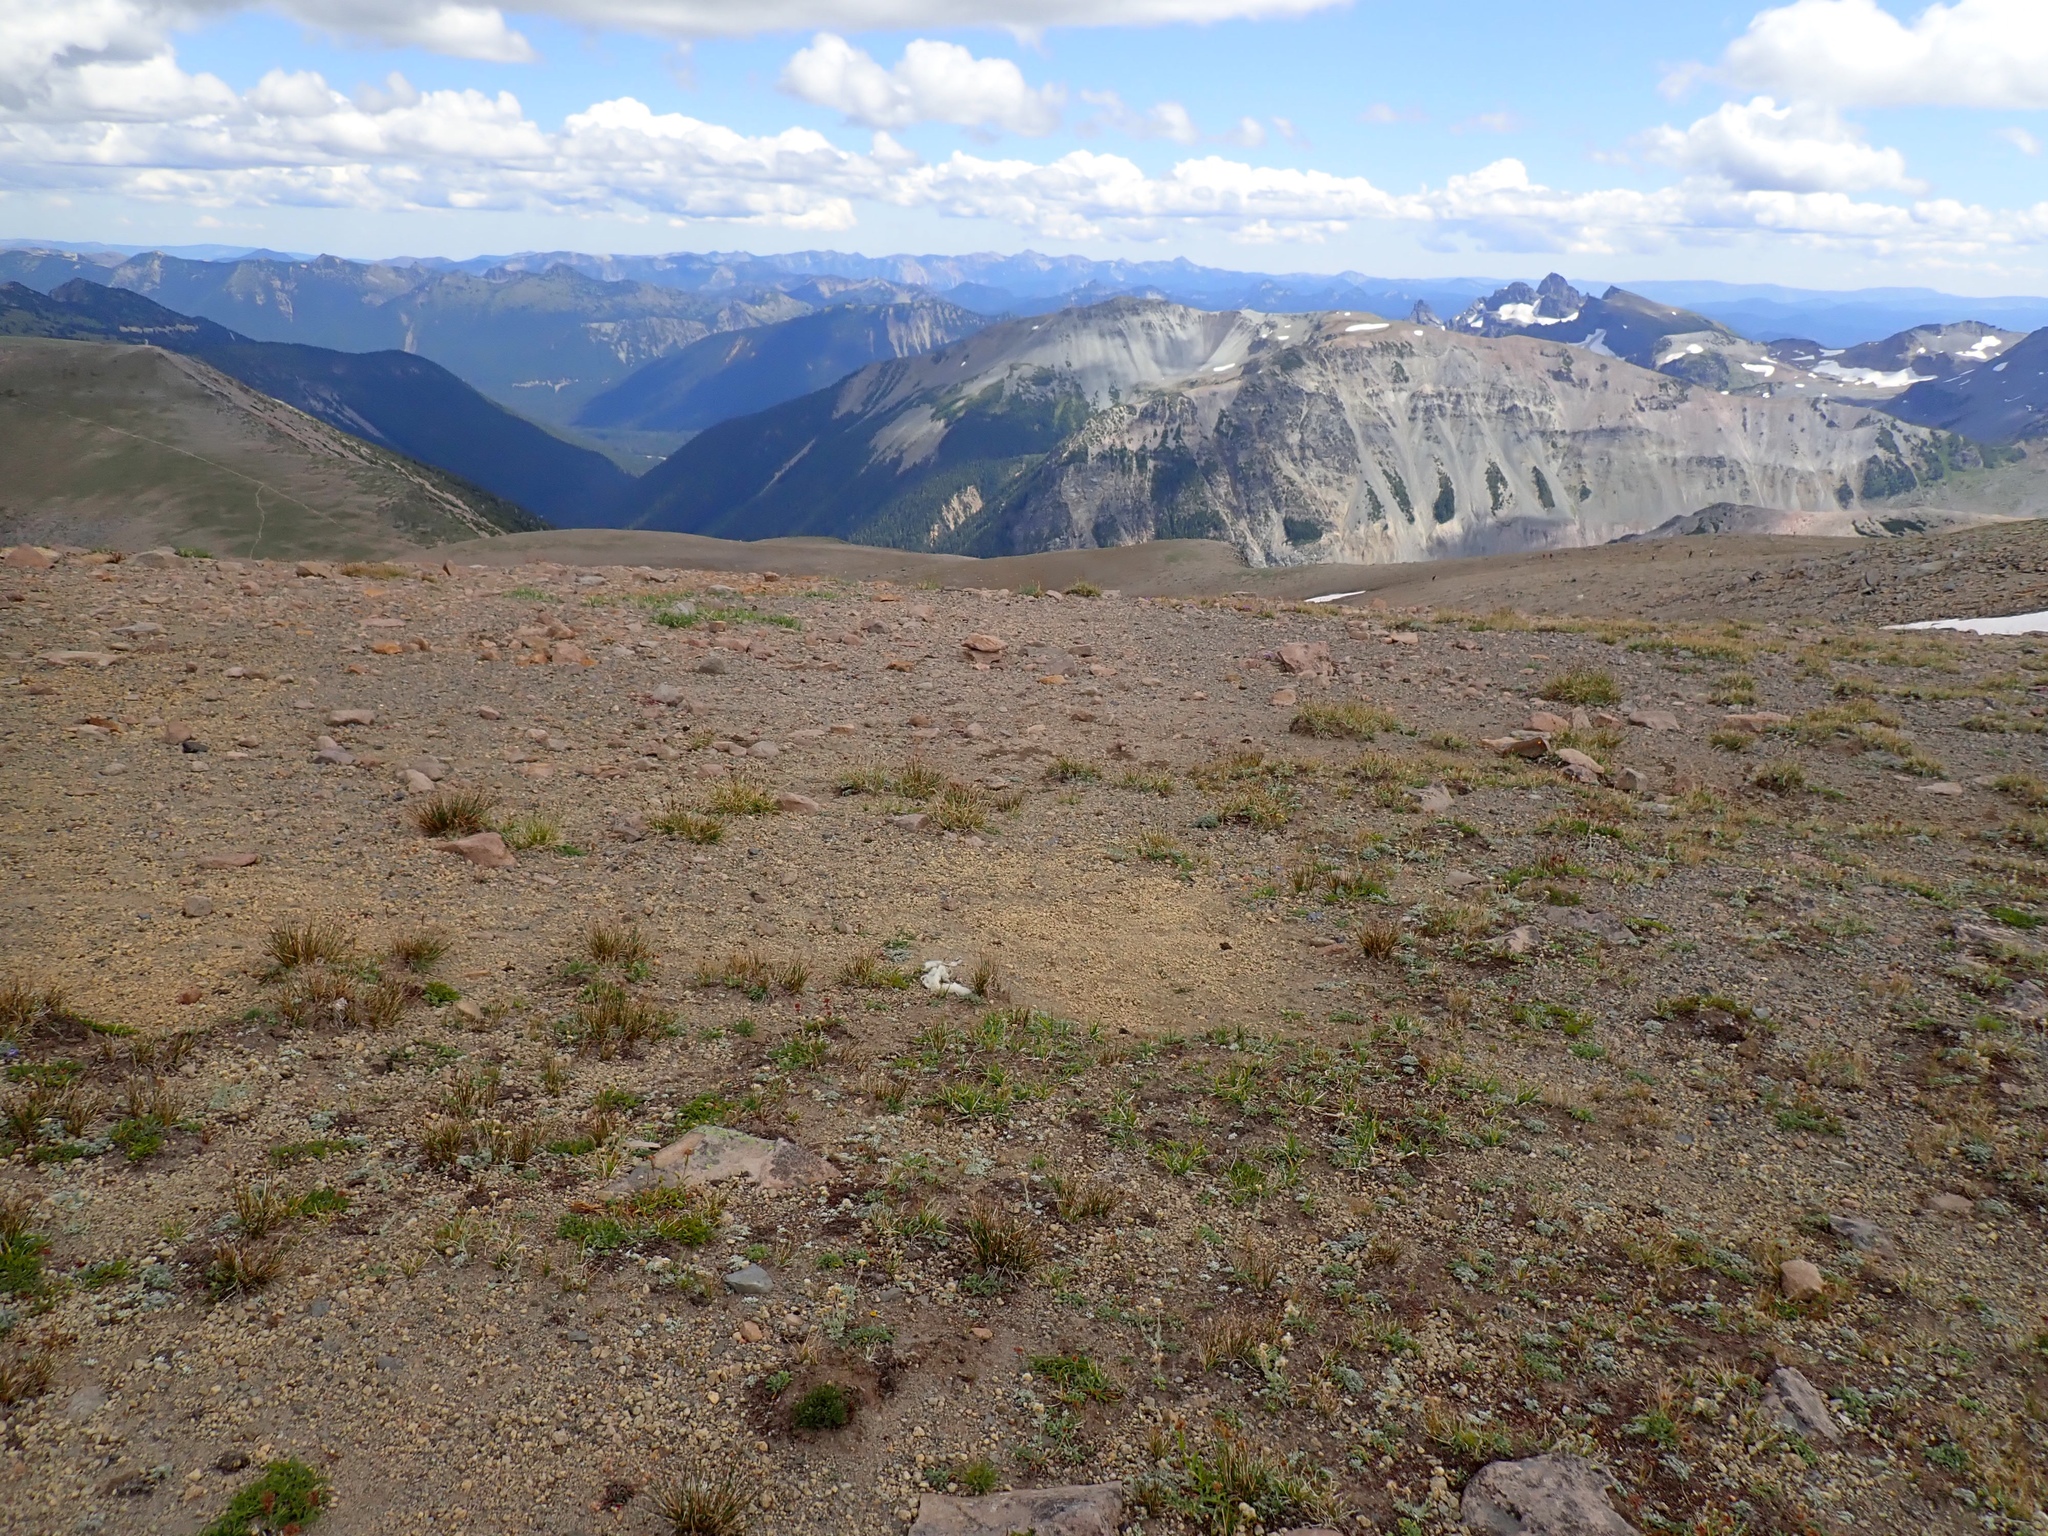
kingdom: Animalia
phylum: Chordata
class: Mammalia
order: Artiodactyla
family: Bovidae
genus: Oreamnos
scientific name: Oreamnos americanus
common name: Mountain goat
